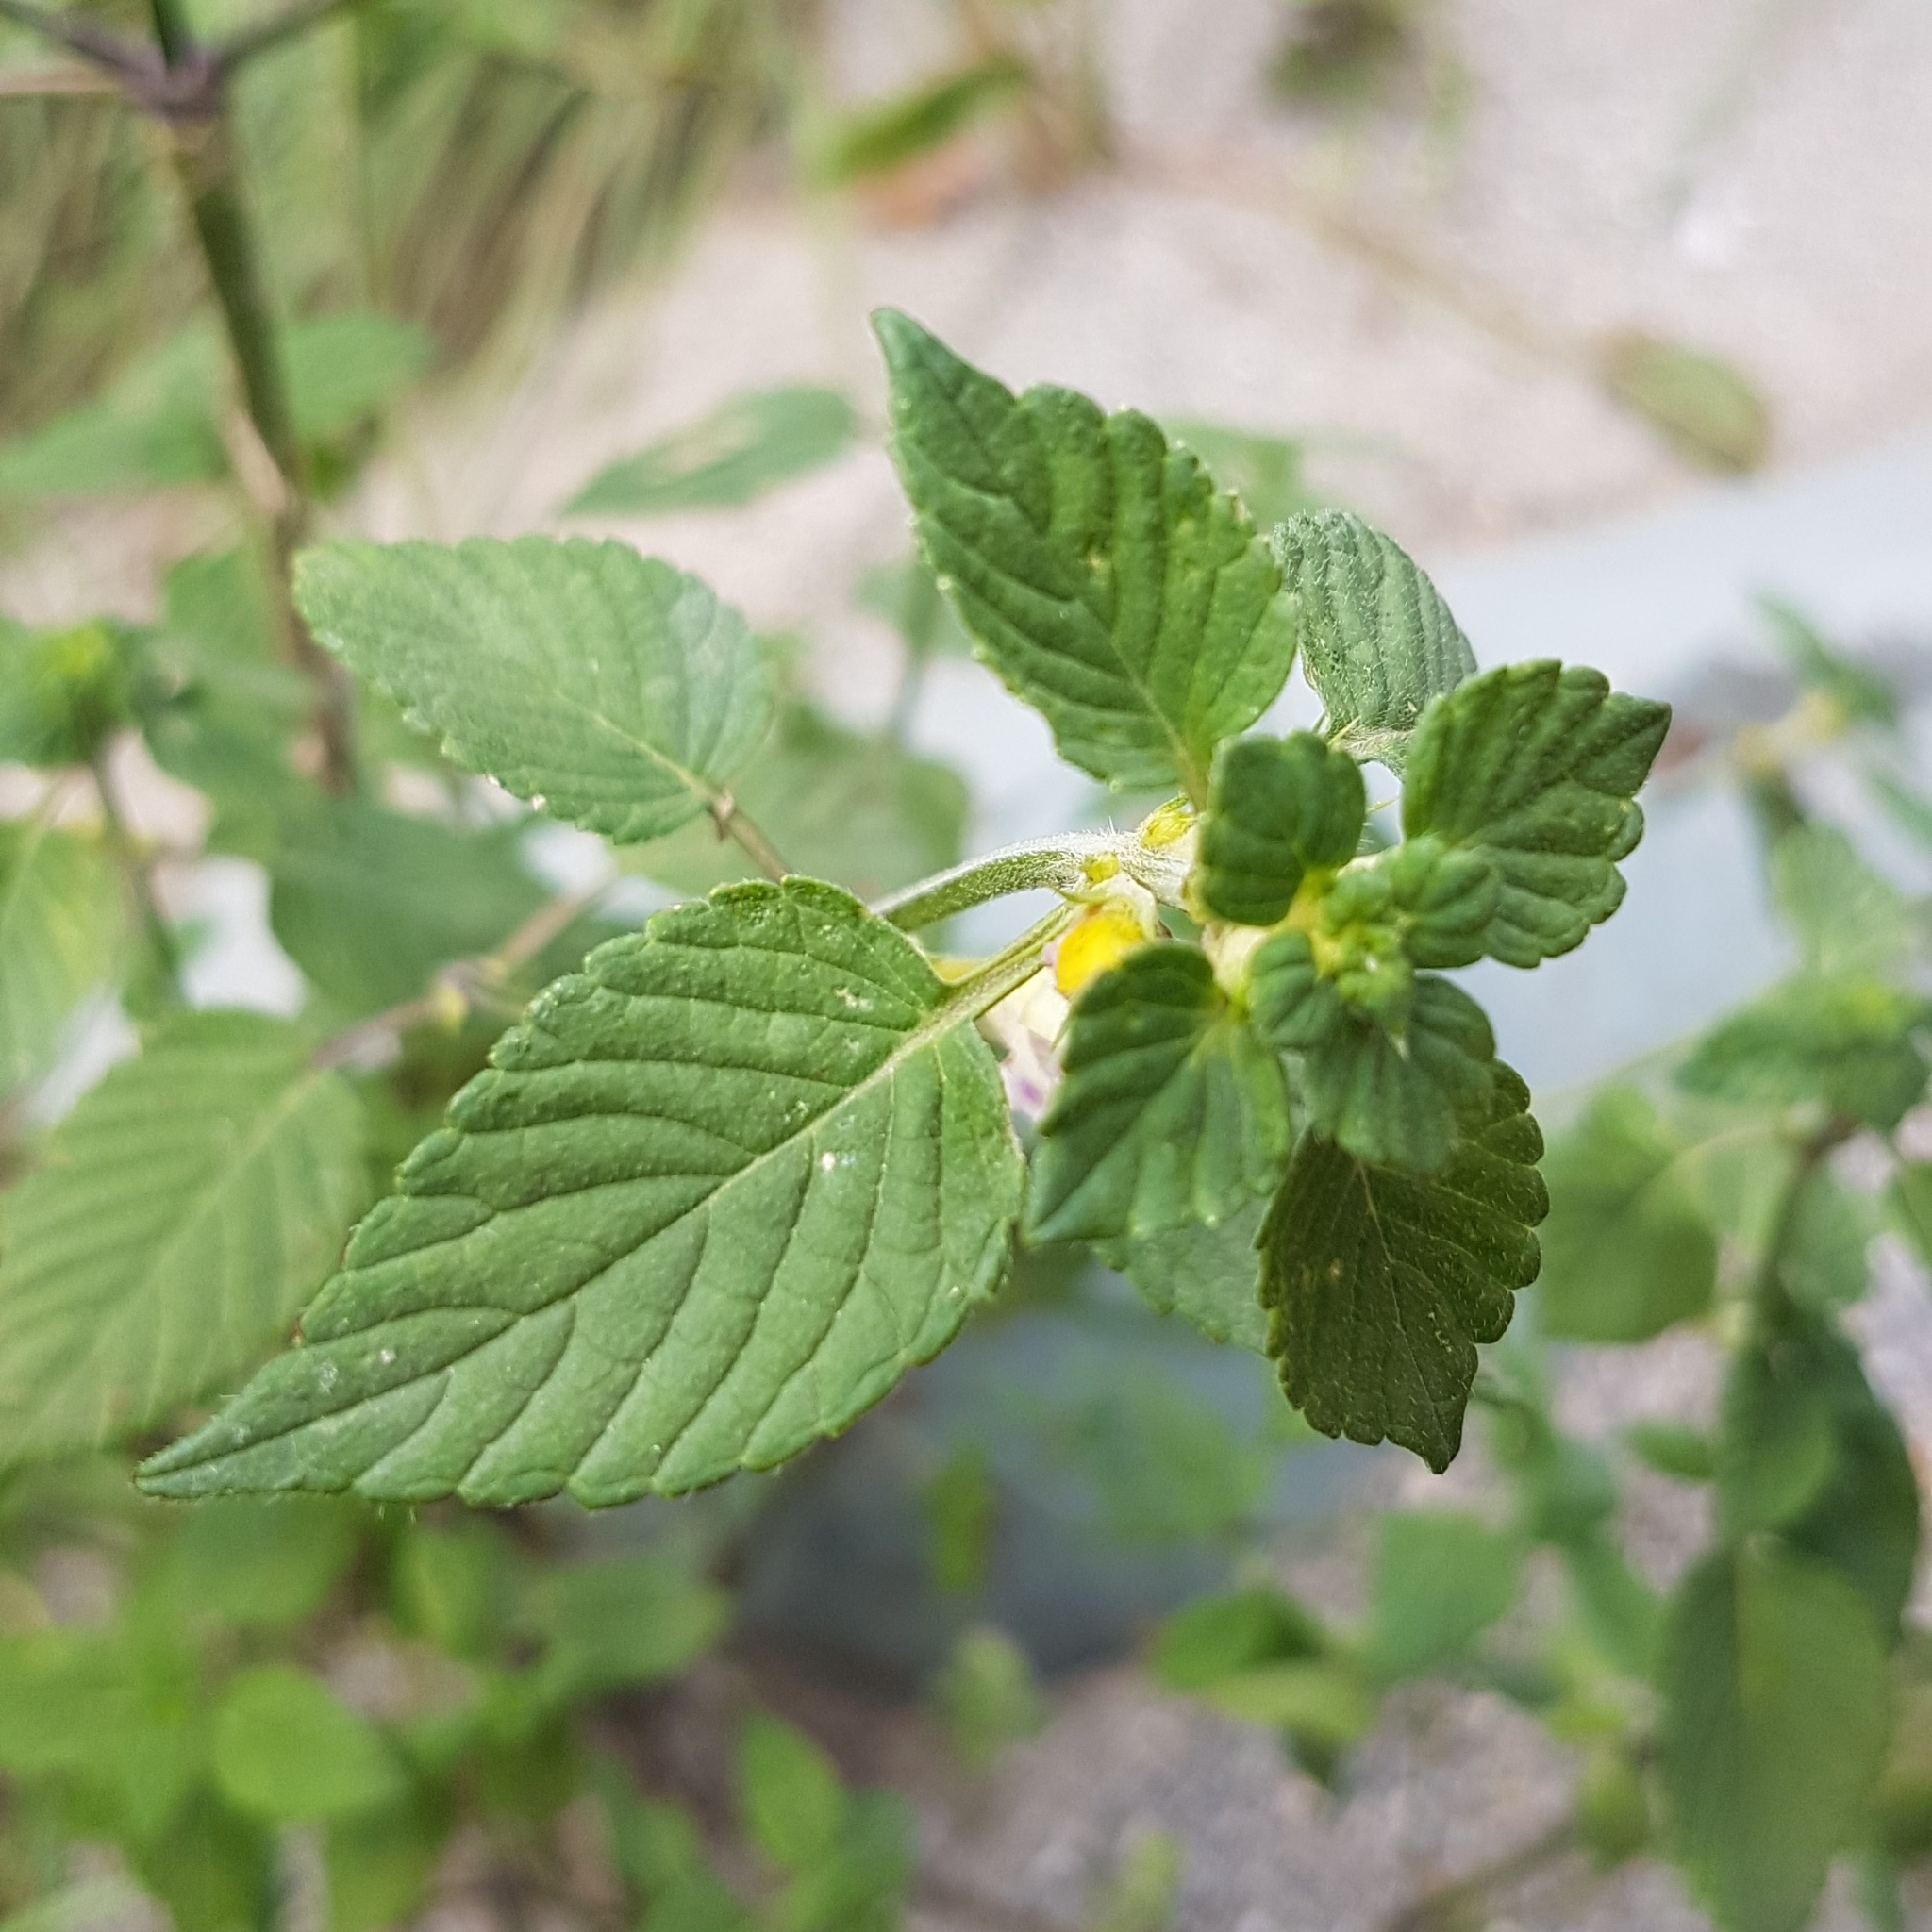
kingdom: Plantae
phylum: Tracheophyta
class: Magnoliopsida
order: Lamiales
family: Lamiaceae
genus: Galeopsis
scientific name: Galeopsis pubescens
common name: Downy hemp-nettle
